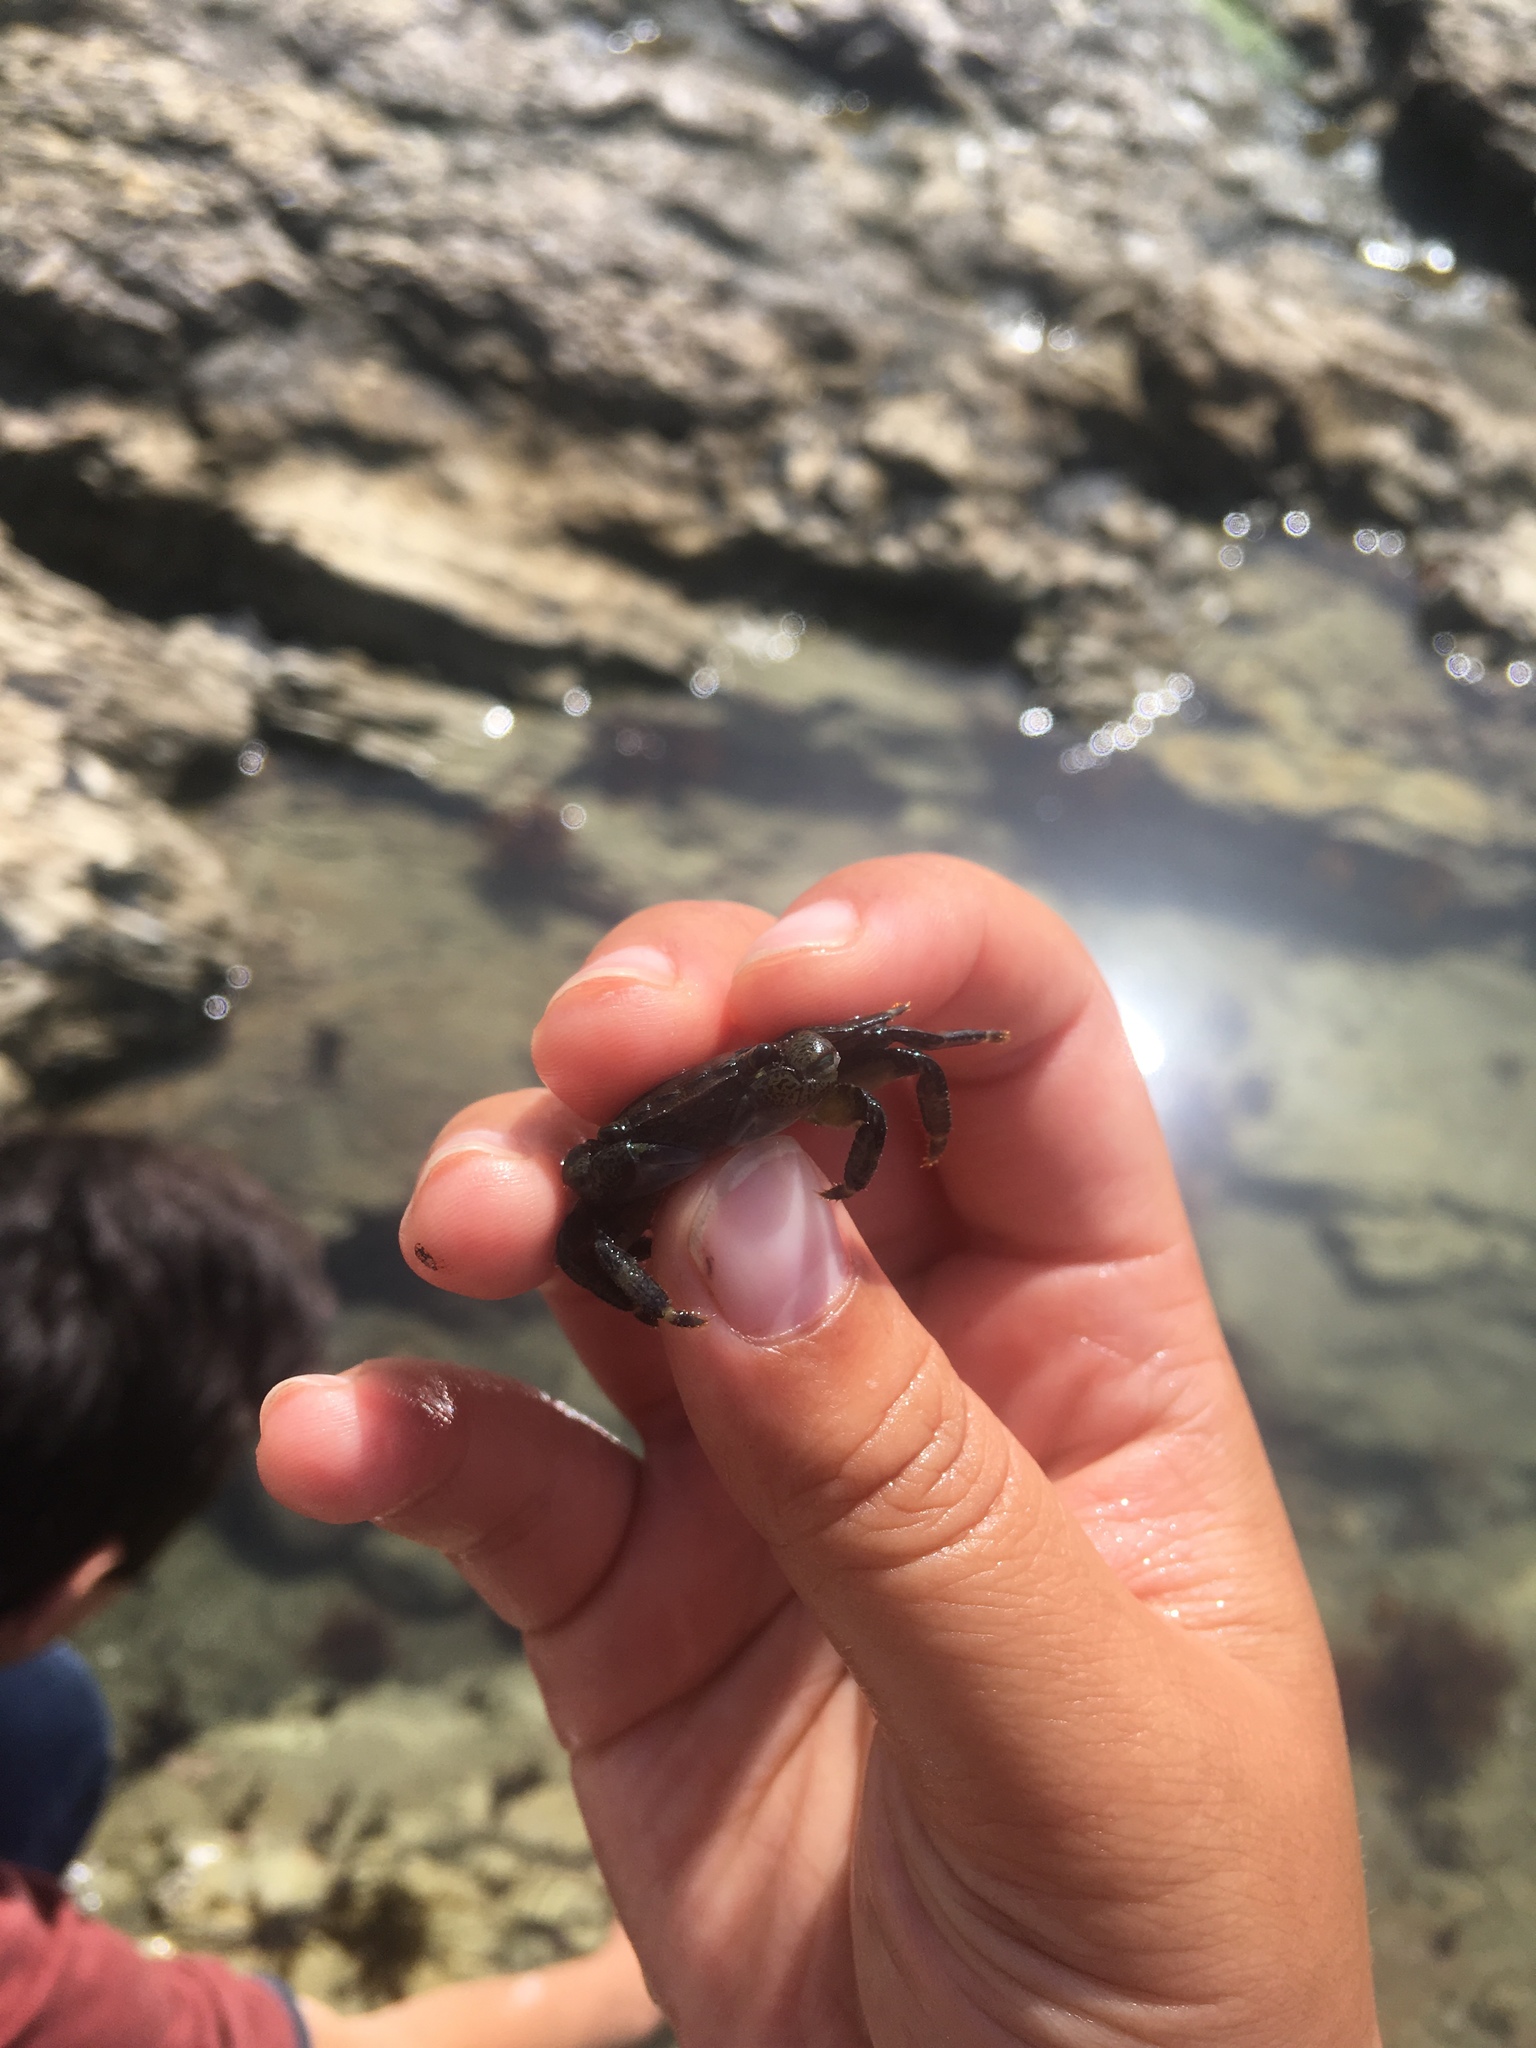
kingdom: Animalia
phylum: Arthropoda
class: Malacostraca
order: Decapoda
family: Grapsidae
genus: Pachygrapsus
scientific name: Pachygrapsus crassipes
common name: Striped shore crab
